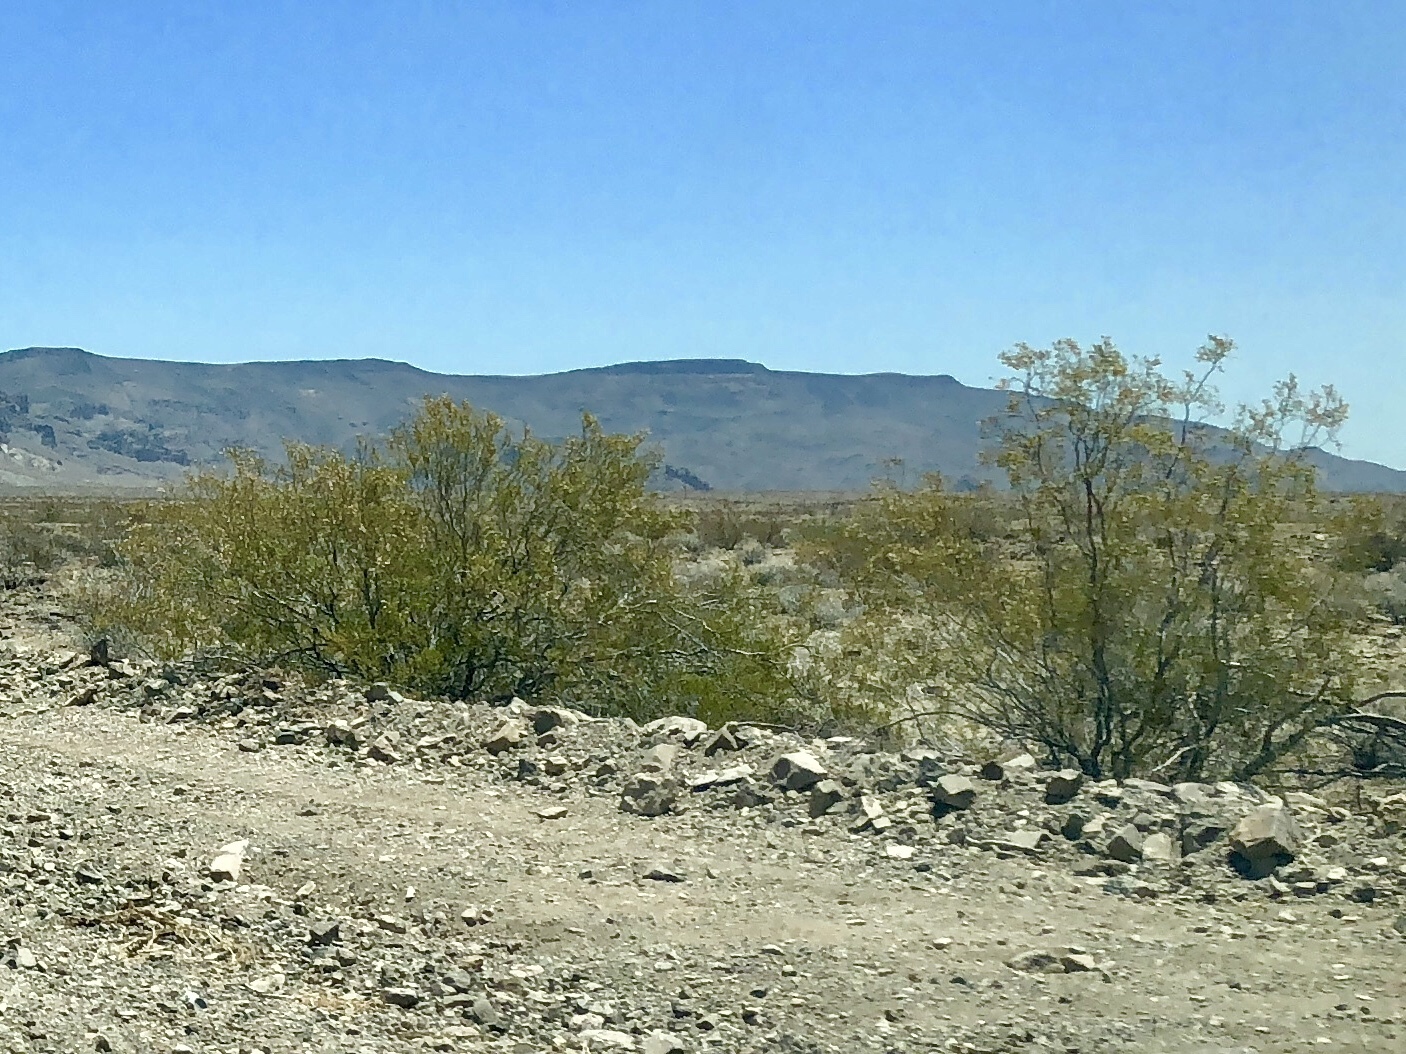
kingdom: Plantae
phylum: Tracheophyta
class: Magnoliopsida
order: Zygophyllales
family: Zygophyllaceae
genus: Larrea
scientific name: Larrea tridentata
